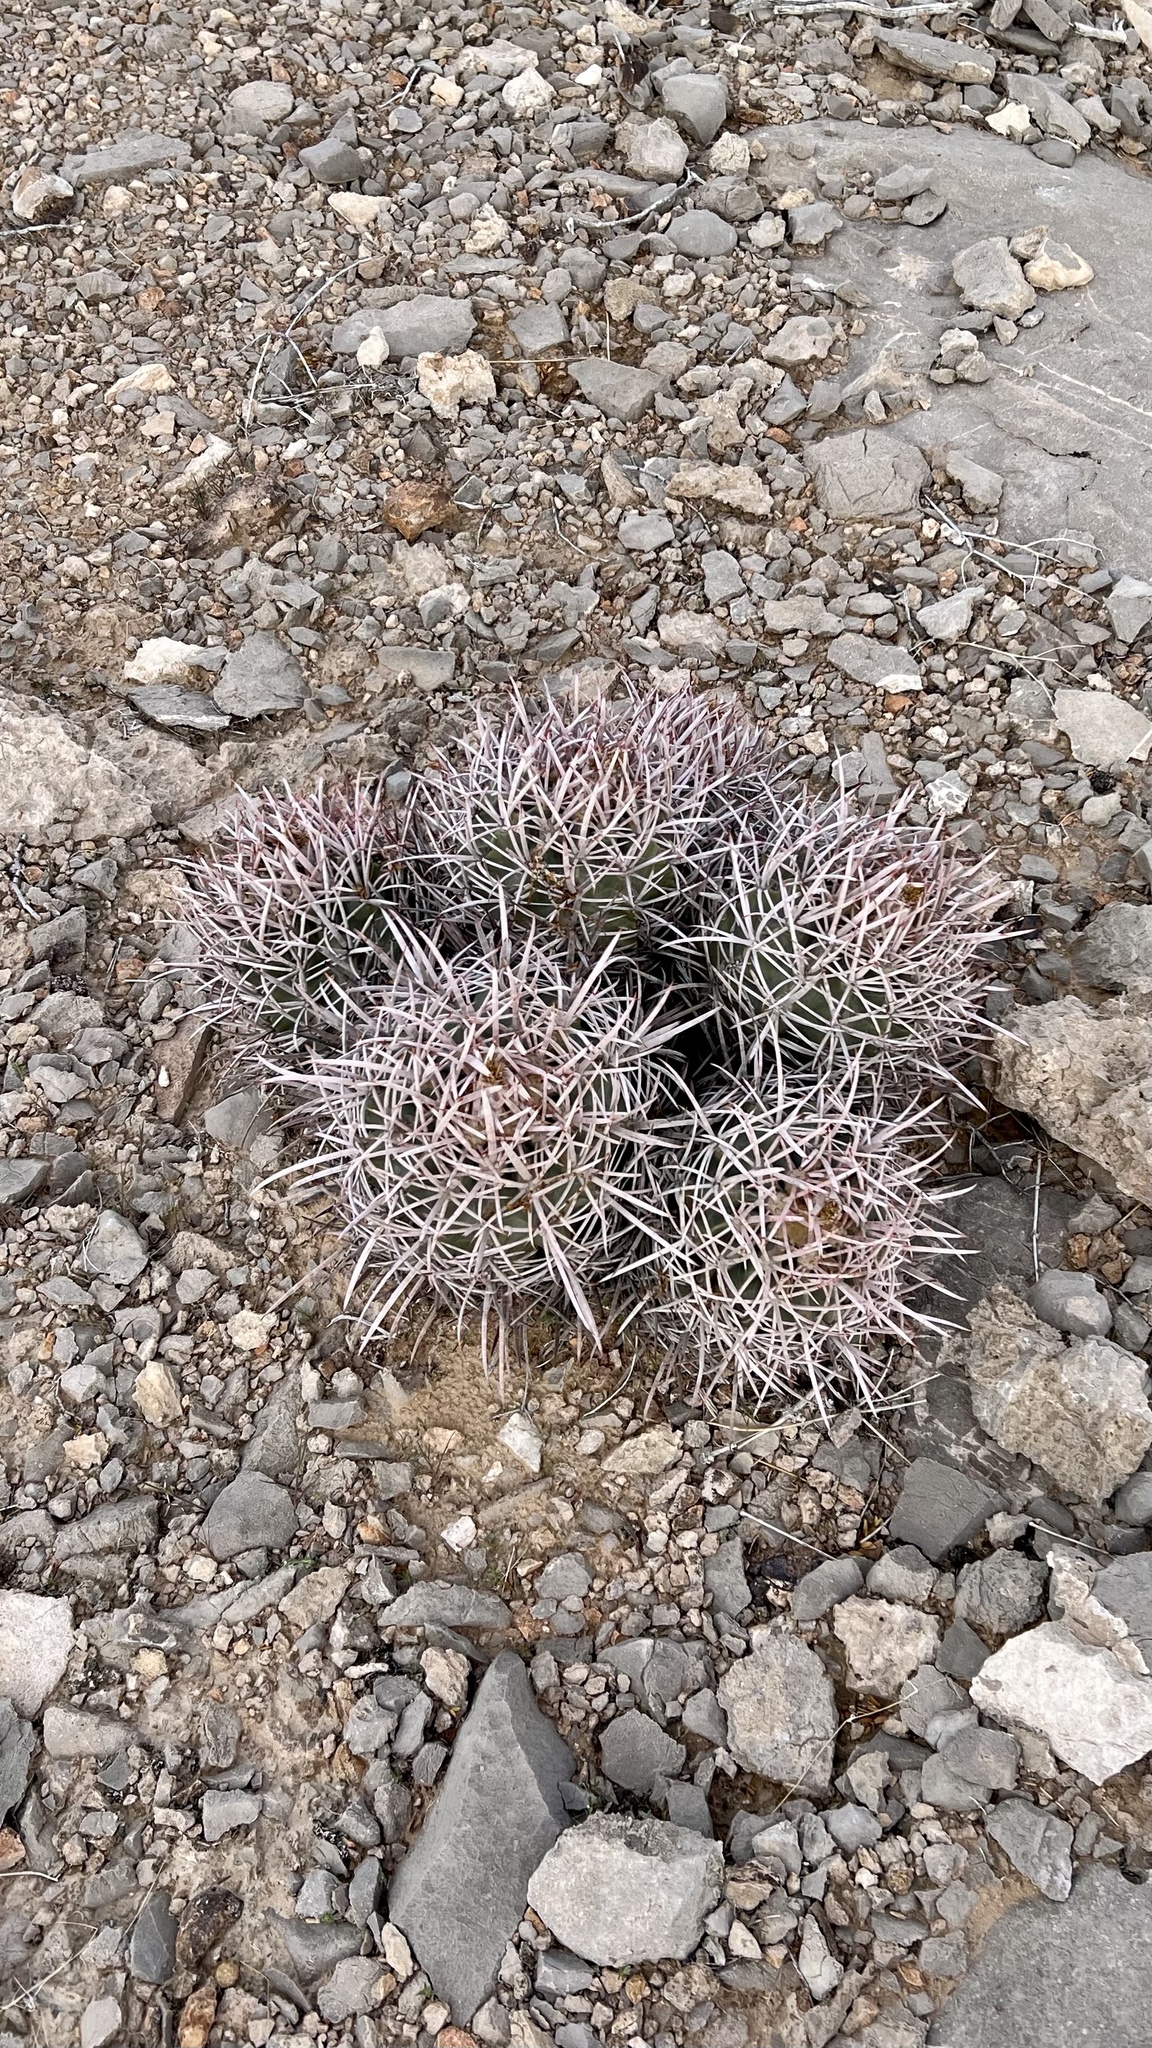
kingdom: Plantae
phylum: Tracheophyta
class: Magnoliopsida
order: Caryophyllales
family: Cactaceae
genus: Echinocactus
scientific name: Echinocactus polycephalus
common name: Cottontop cactus
